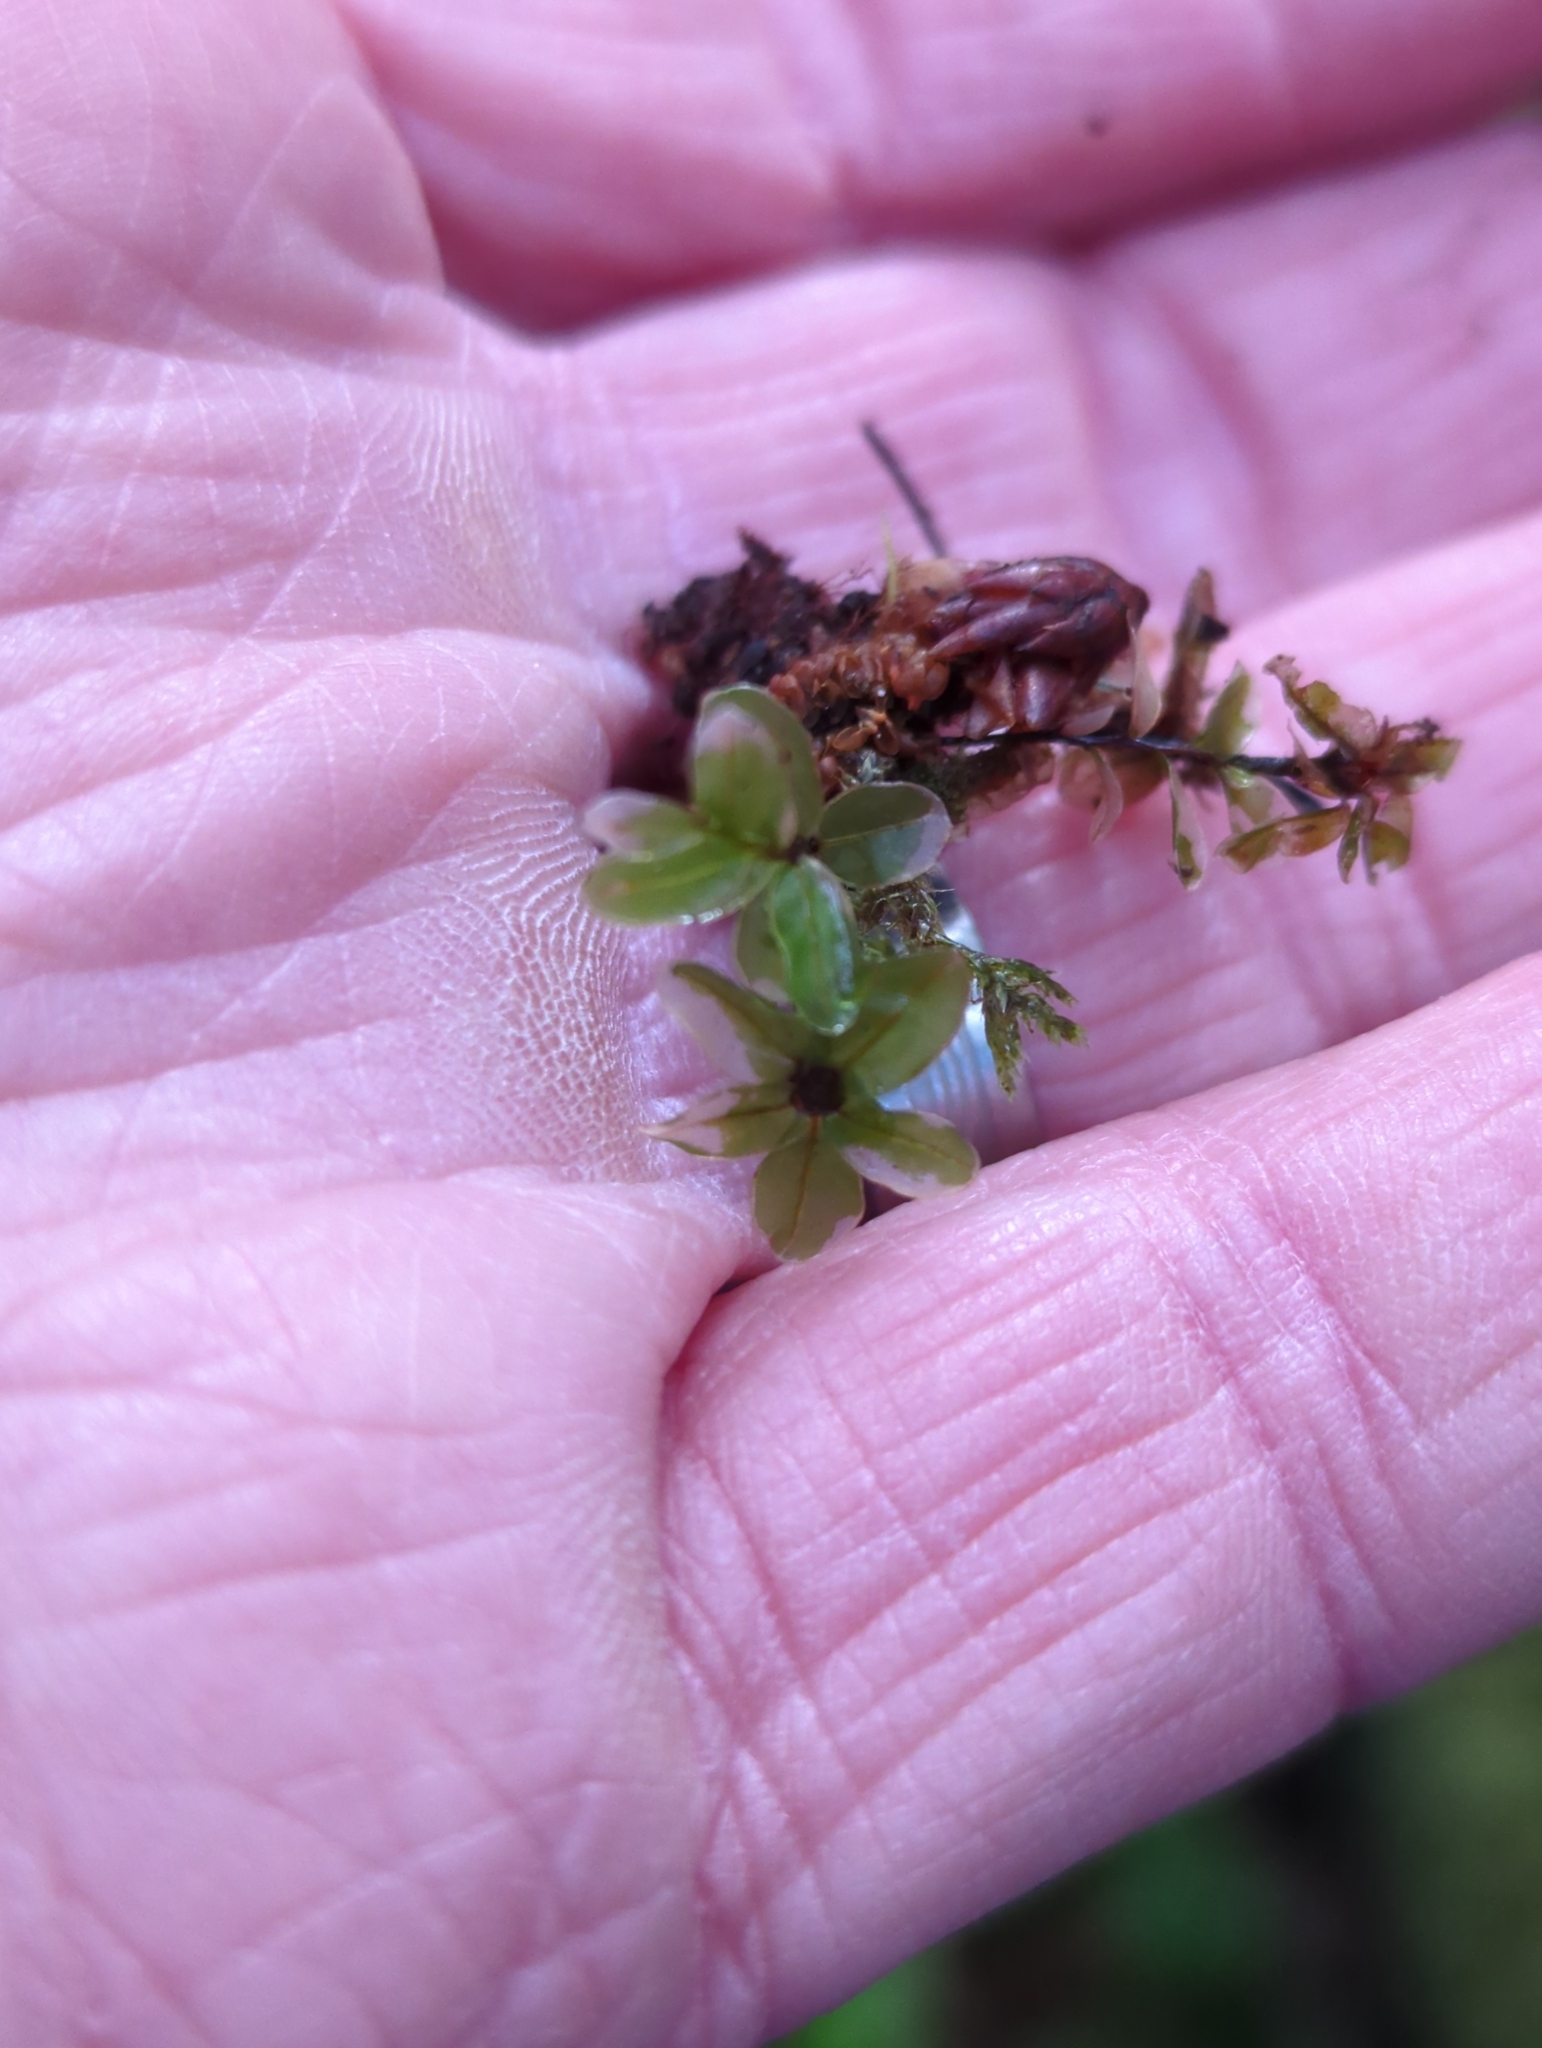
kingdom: Plantae
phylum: Bryophyta
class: Bryopsida
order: Bryales
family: Mniaceae
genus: Rhizomnium
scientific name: Rhizomnium glabrescens
